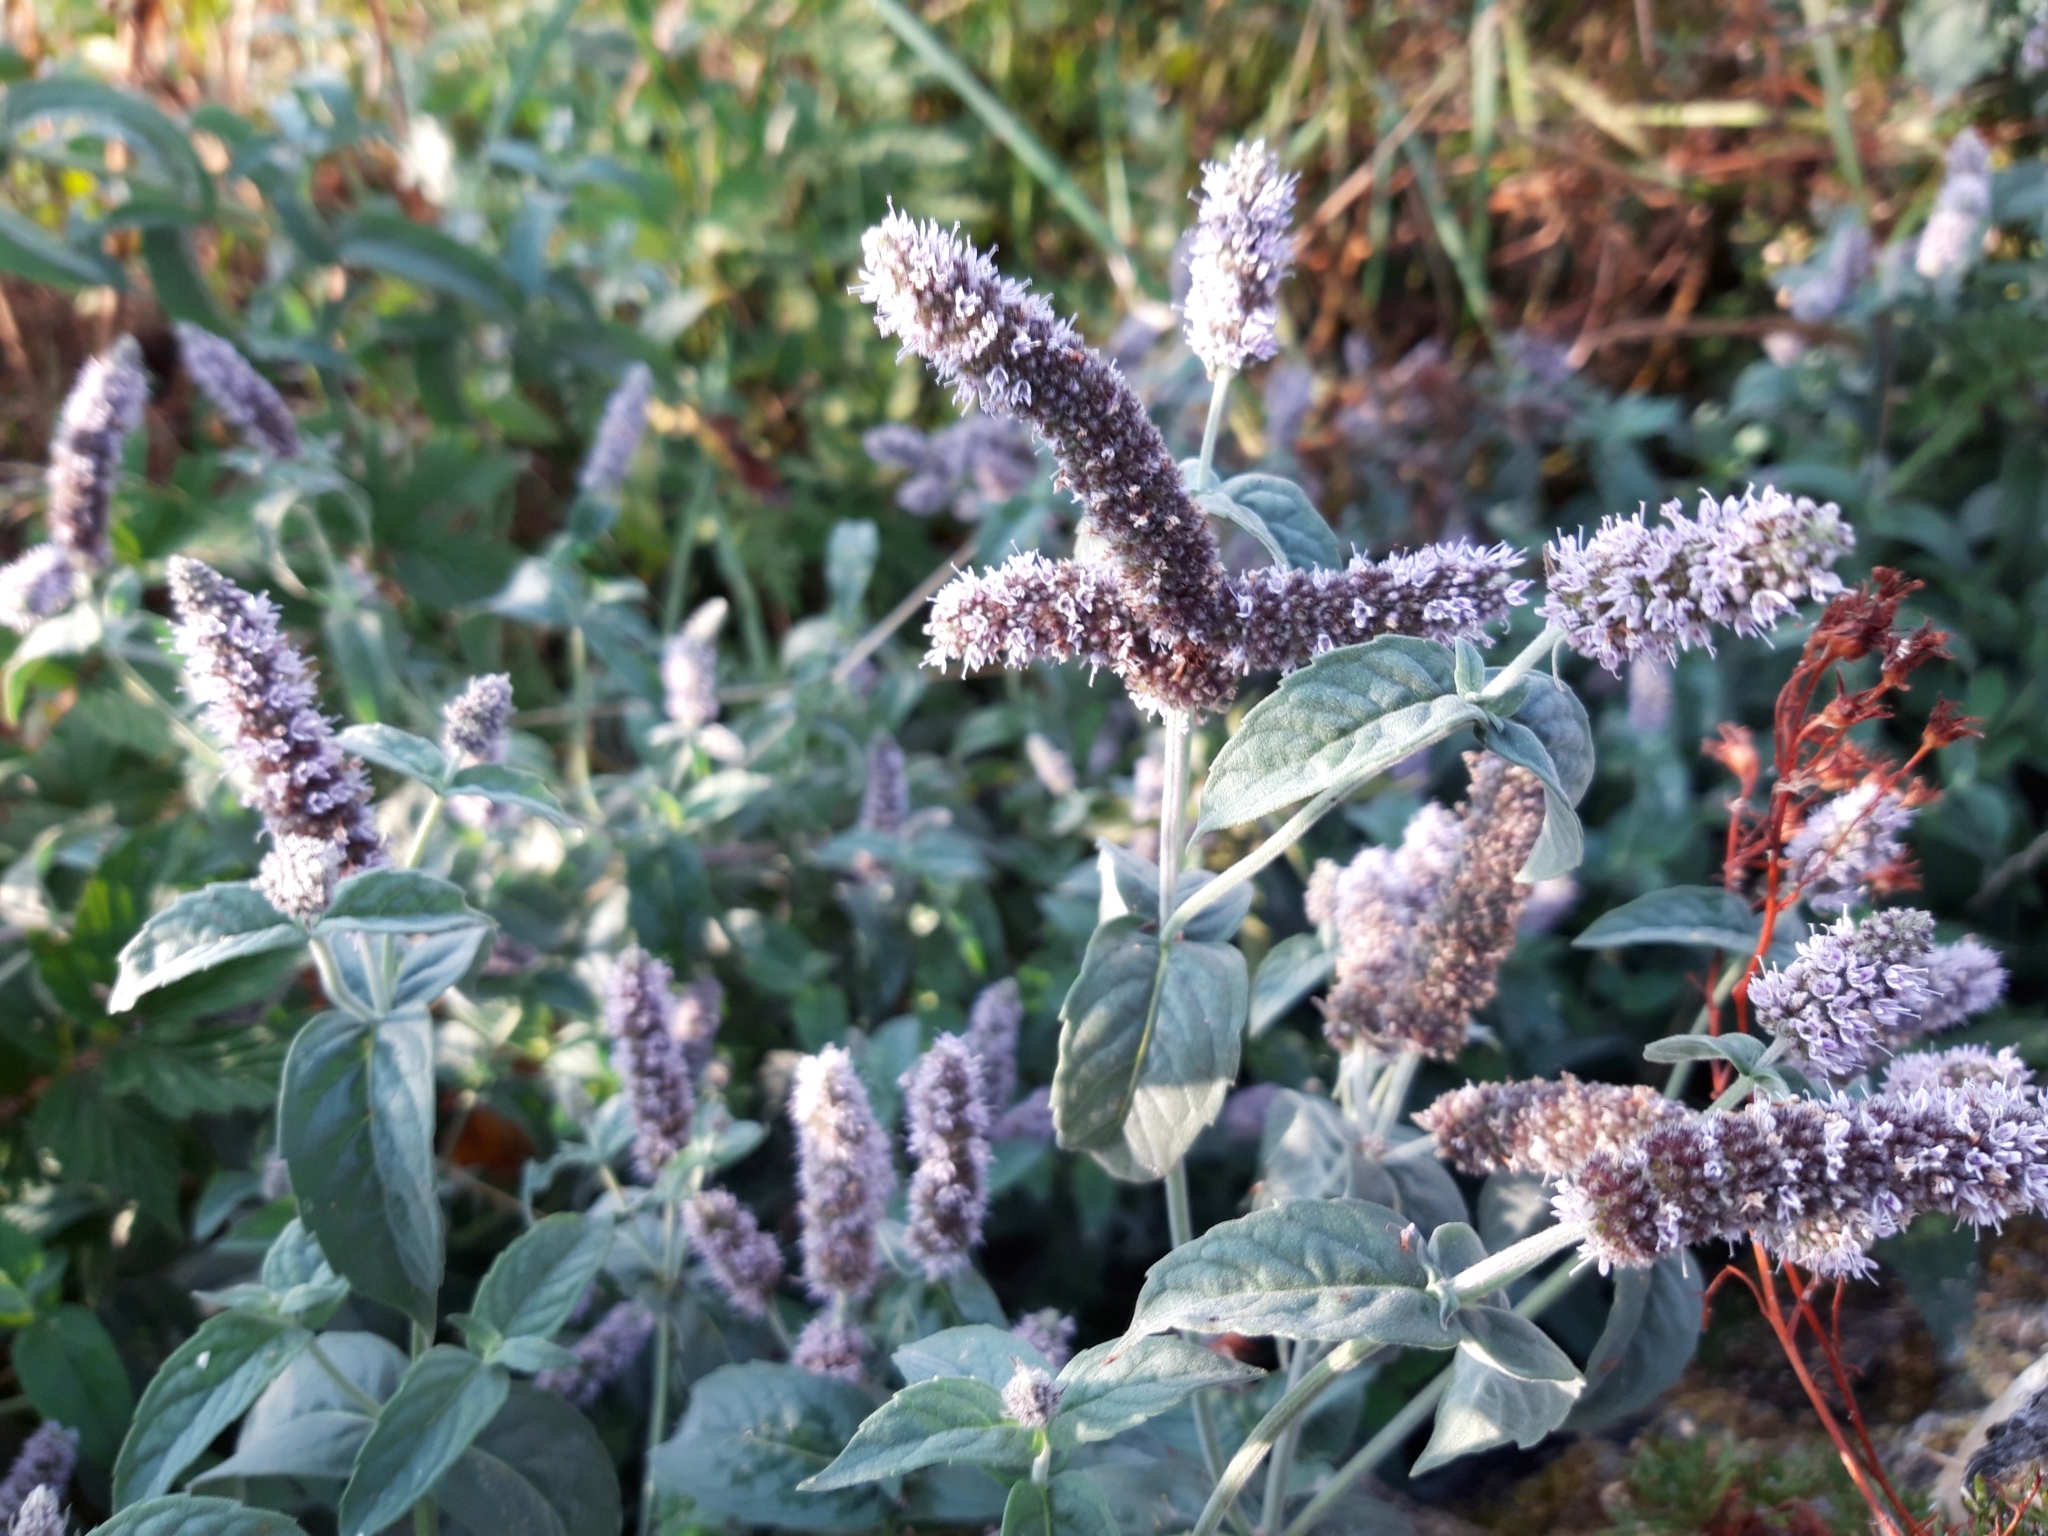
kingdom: Plantae
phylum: Tracheophyta
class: Magnoliopsida
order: Lamiales
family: Lamiaceae
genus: Mentha
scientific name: Mentha longifolia
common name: Horse mint
